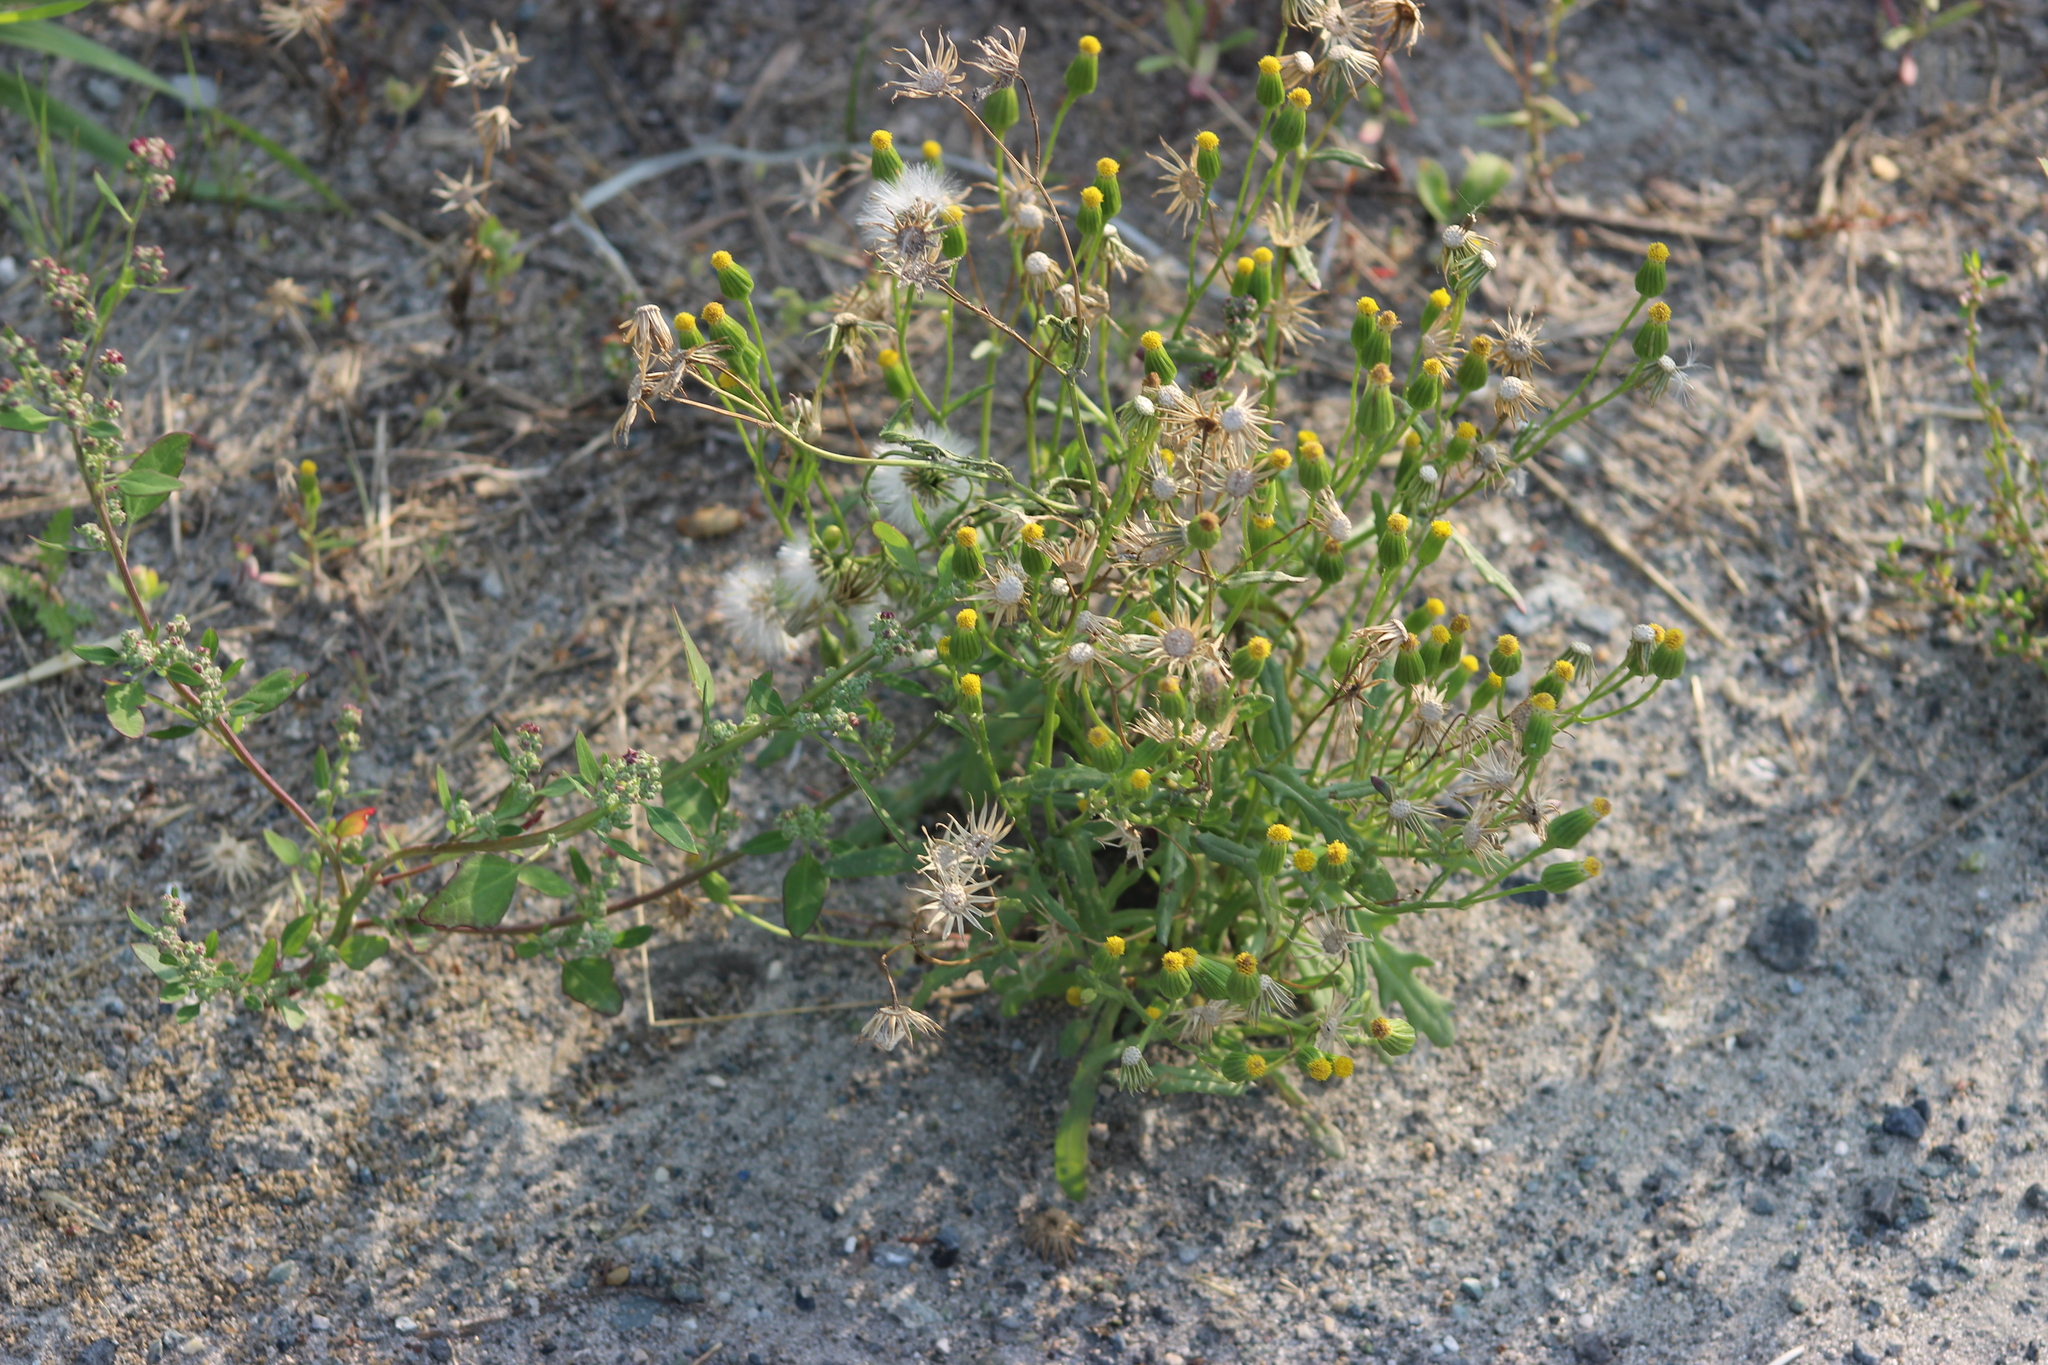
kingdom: Plantae
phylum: Tracheophyta
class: Magnoliopsida
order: Asterales
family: Asteraceae
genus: Senecio
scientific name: Senecio dubitabilis
